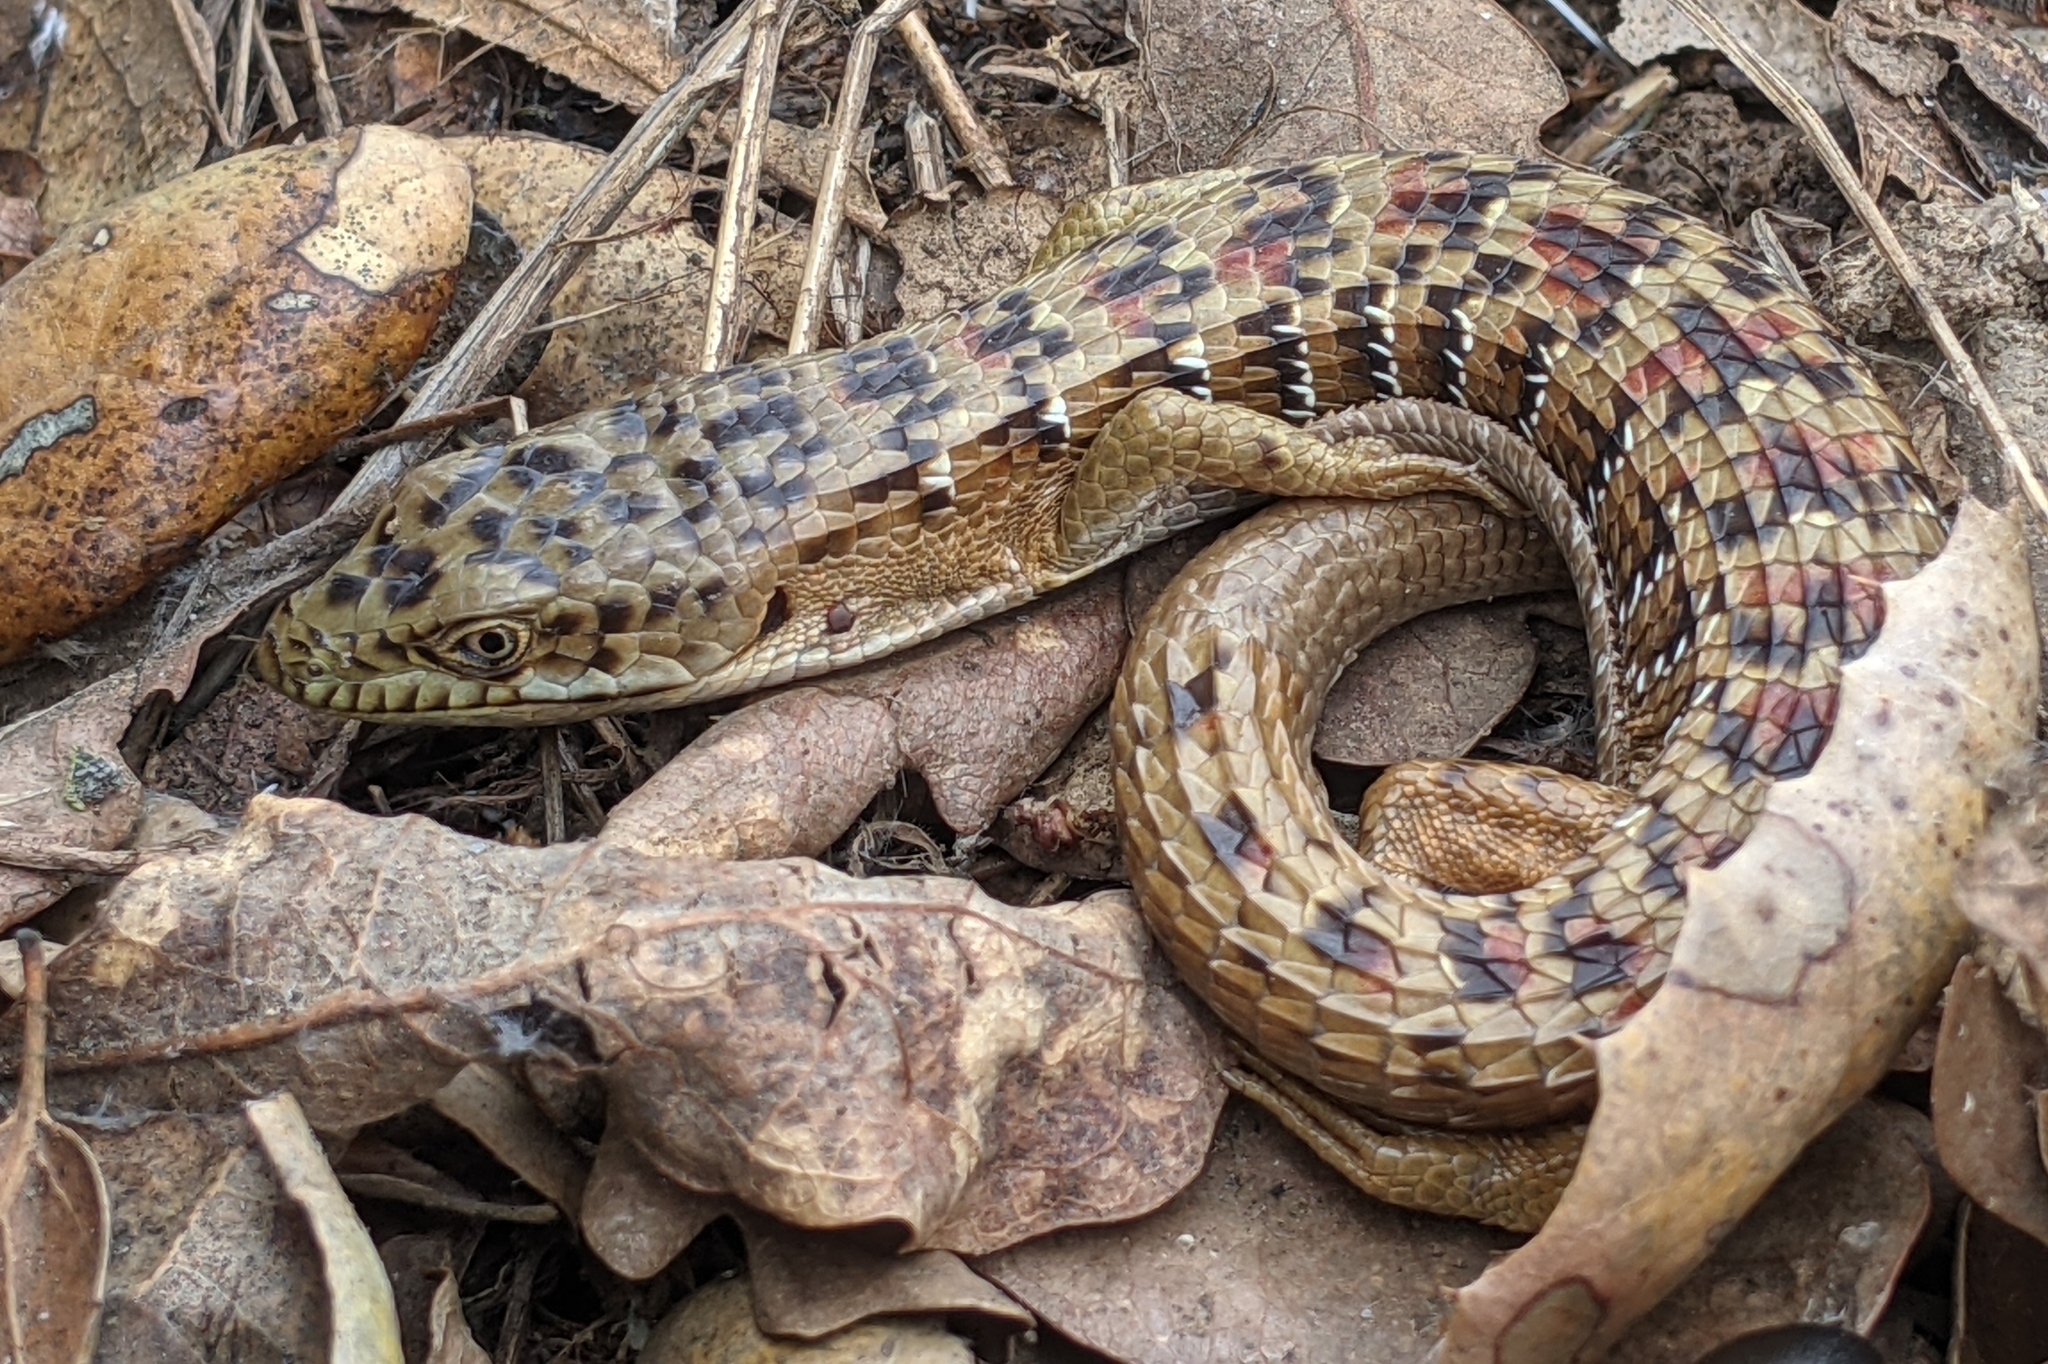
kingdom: Animalia
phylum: Chordata
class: Squamata
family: Anguidae
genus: Elgaria
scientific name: Elgaria multicarinata
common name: Southern alligator lizard
